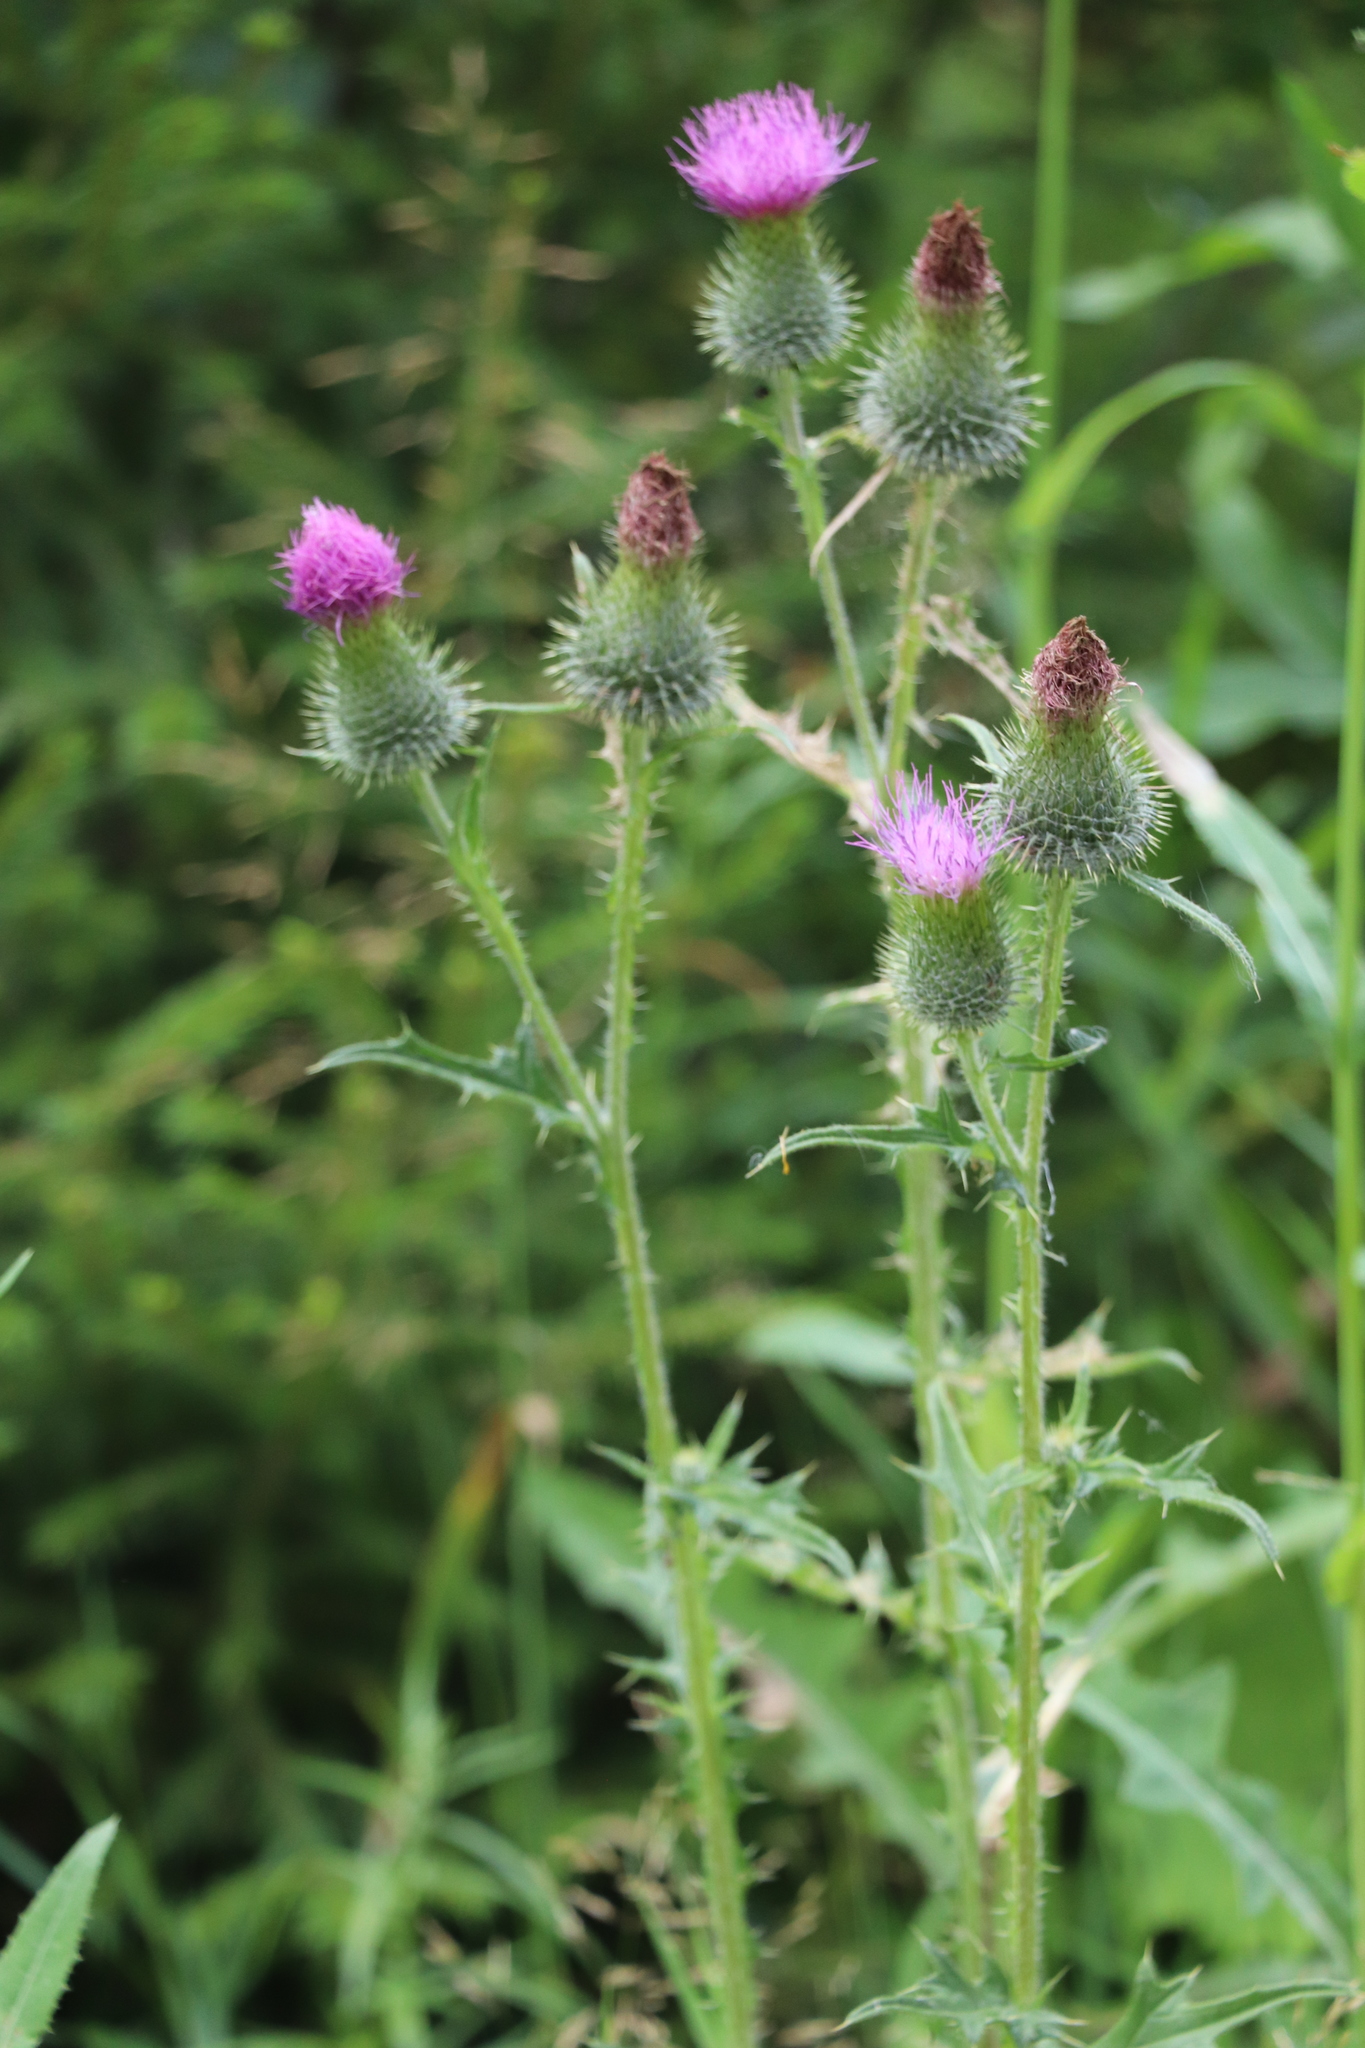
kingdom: Plantae
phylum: Tracheophyta
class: Magnoliopsida
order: Asterales
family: Asteraceae
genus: Cirsium
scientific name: Cirsium vulgare
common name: Bull thistle
